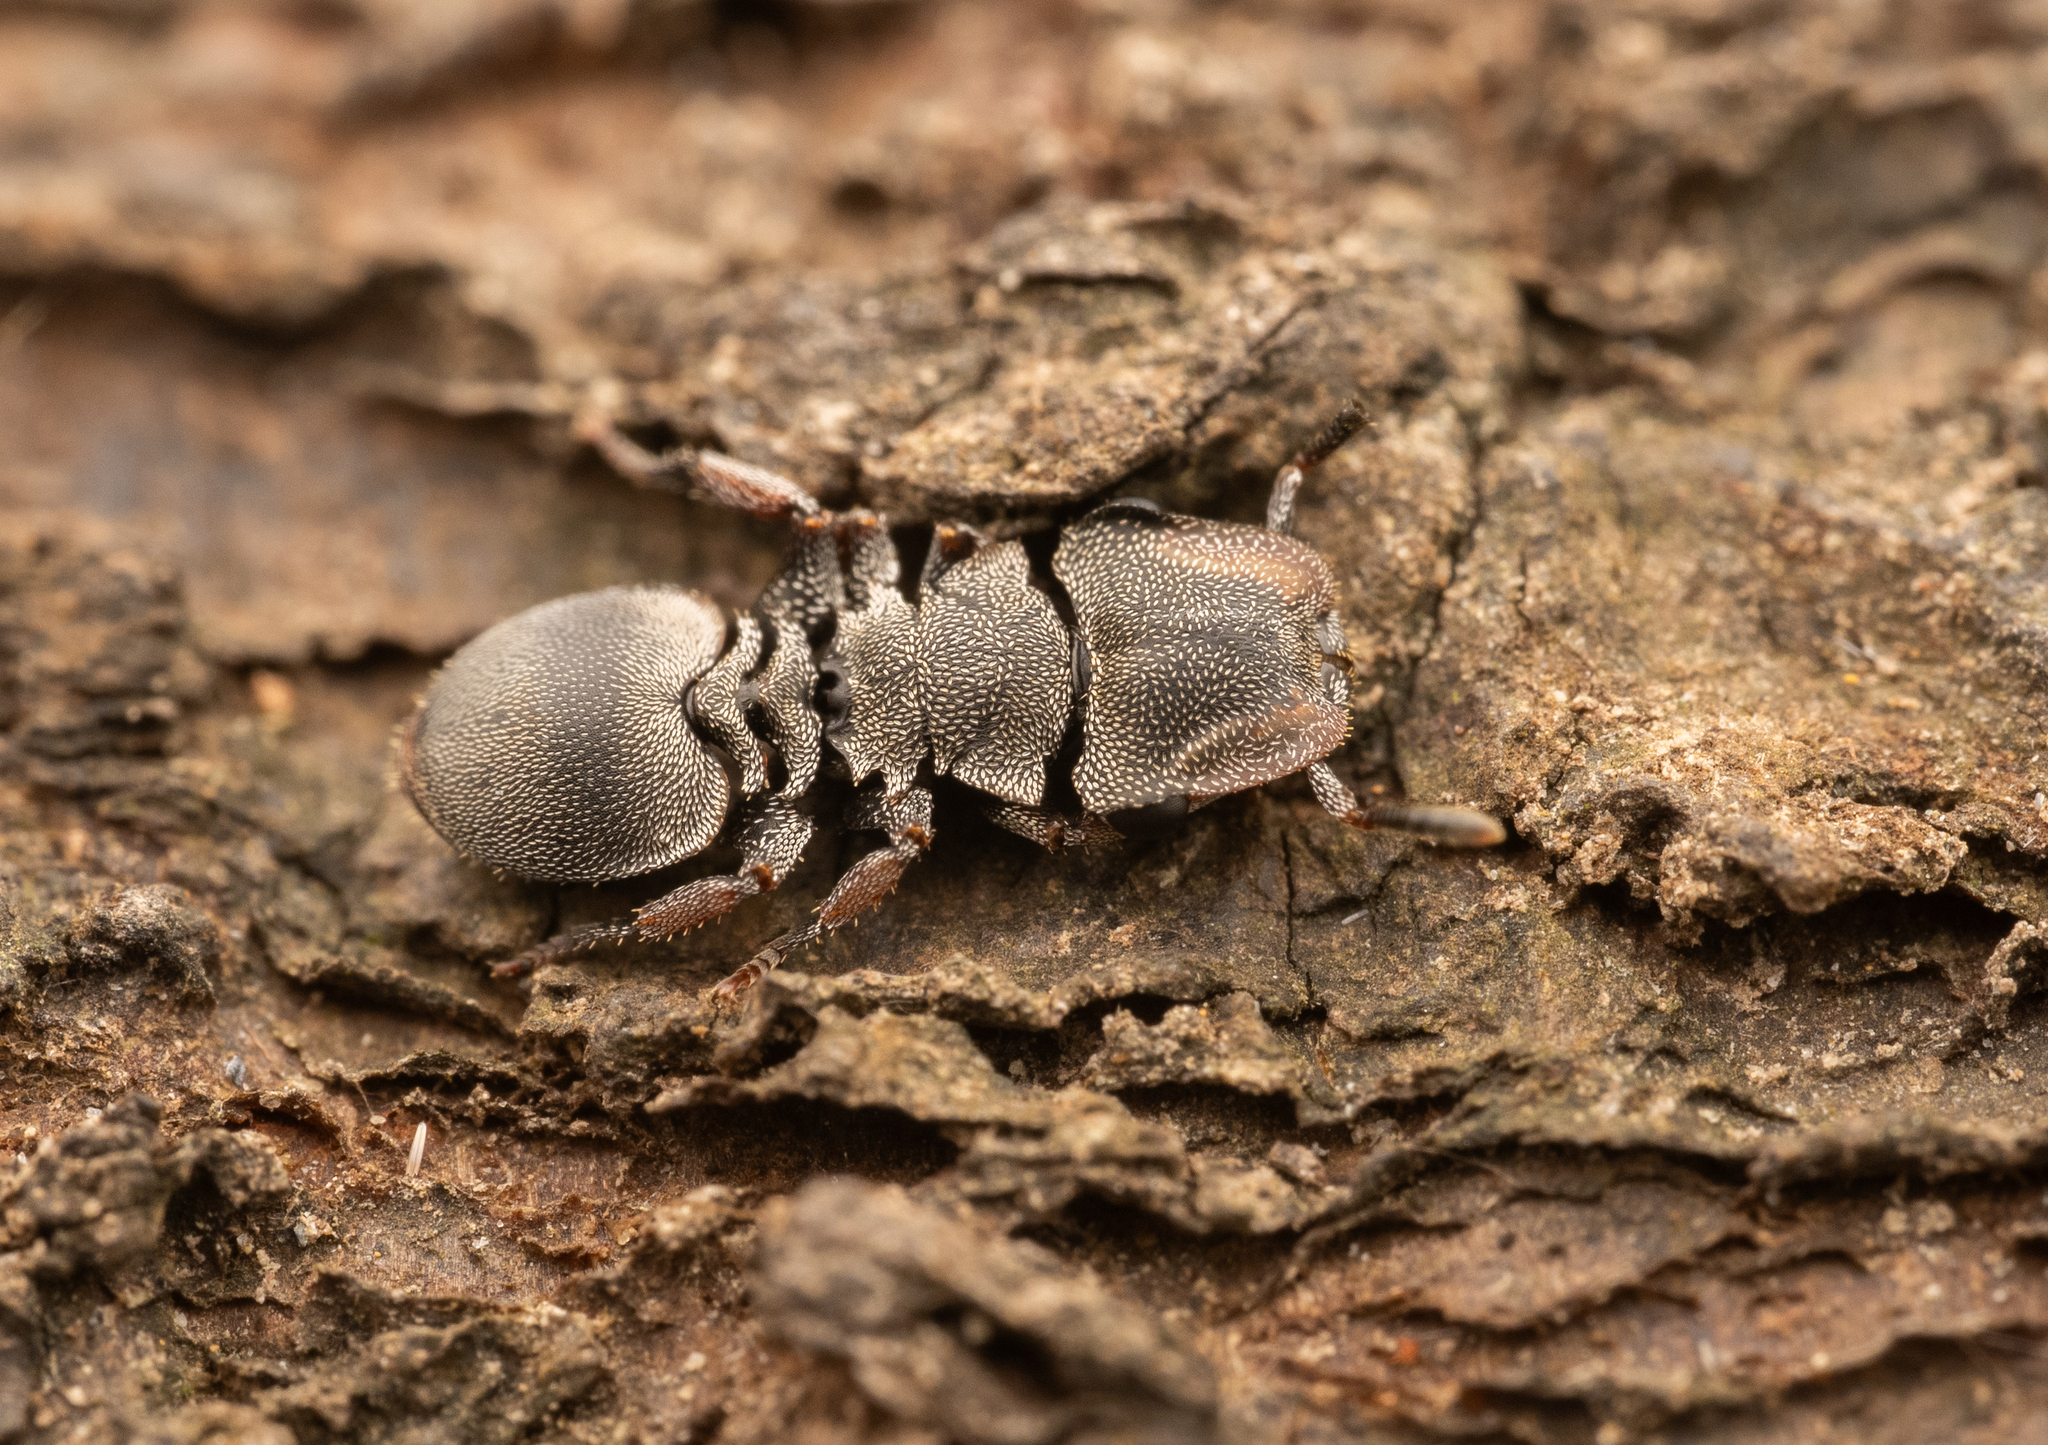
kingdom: Animalia
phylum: Arthropoda
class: Insecta
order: Hymenoptera
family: Formicidae
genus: Cephalotes
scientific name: Cephalotes cordatus
